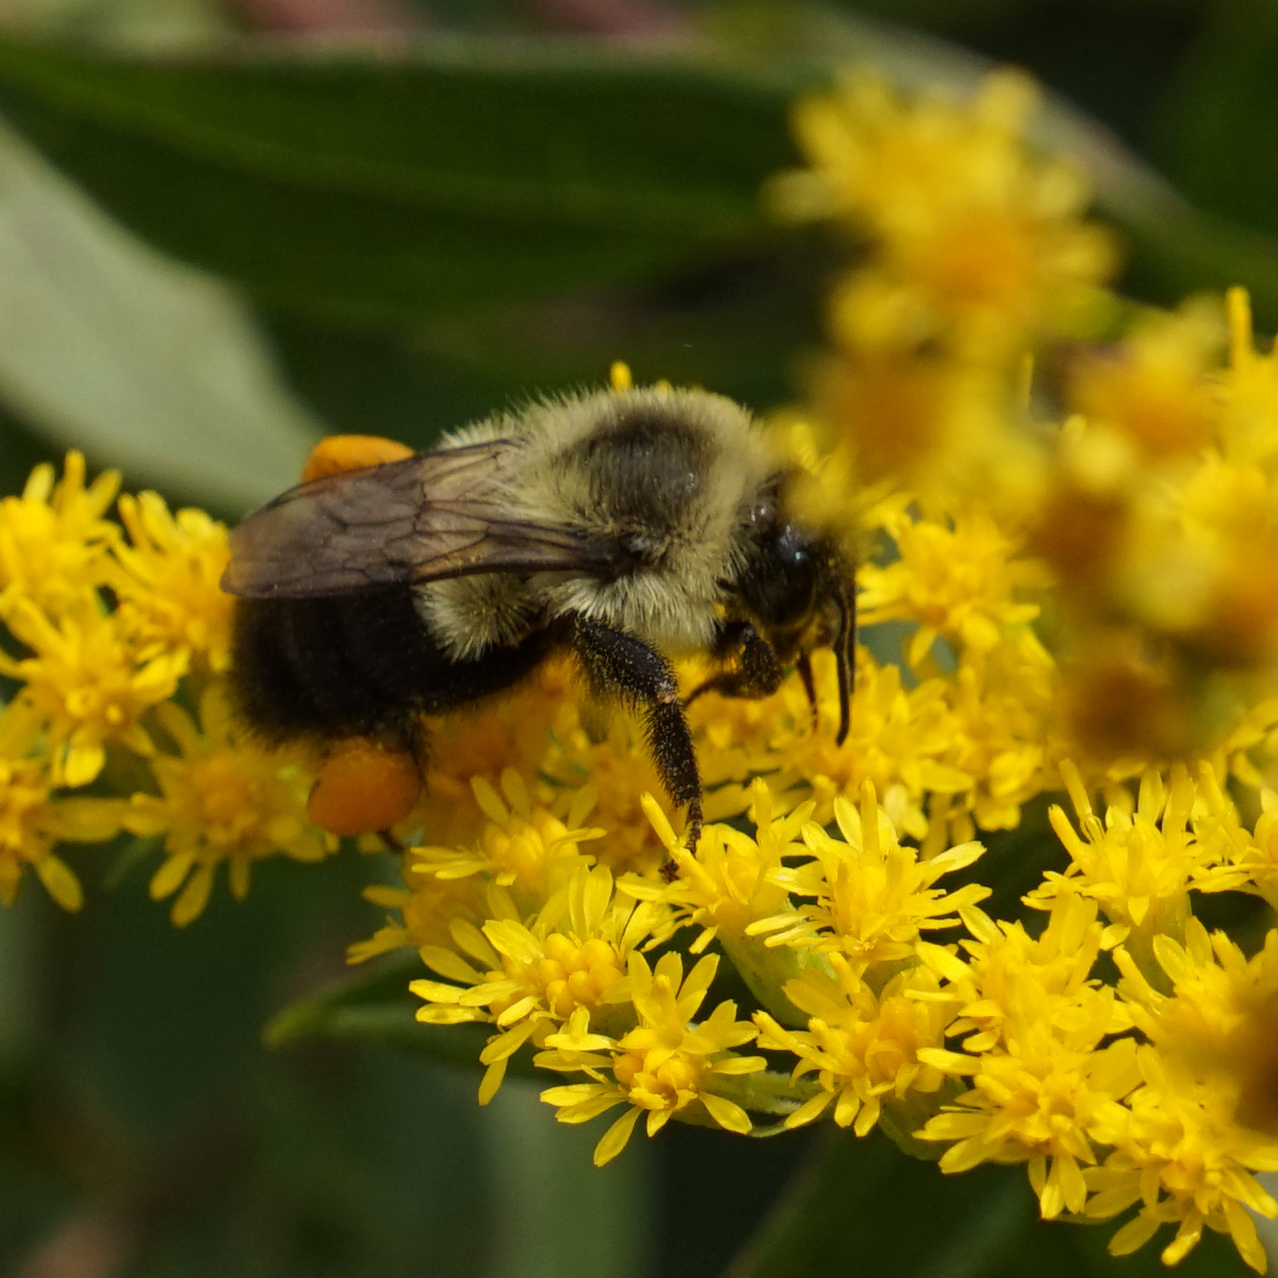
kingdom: Animalia
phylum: Arthropoda
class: Insecta
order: Hymenoptera
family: Apidae
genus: Bombus
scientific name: Bombus impatiens
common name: Common eastern bumble bee
